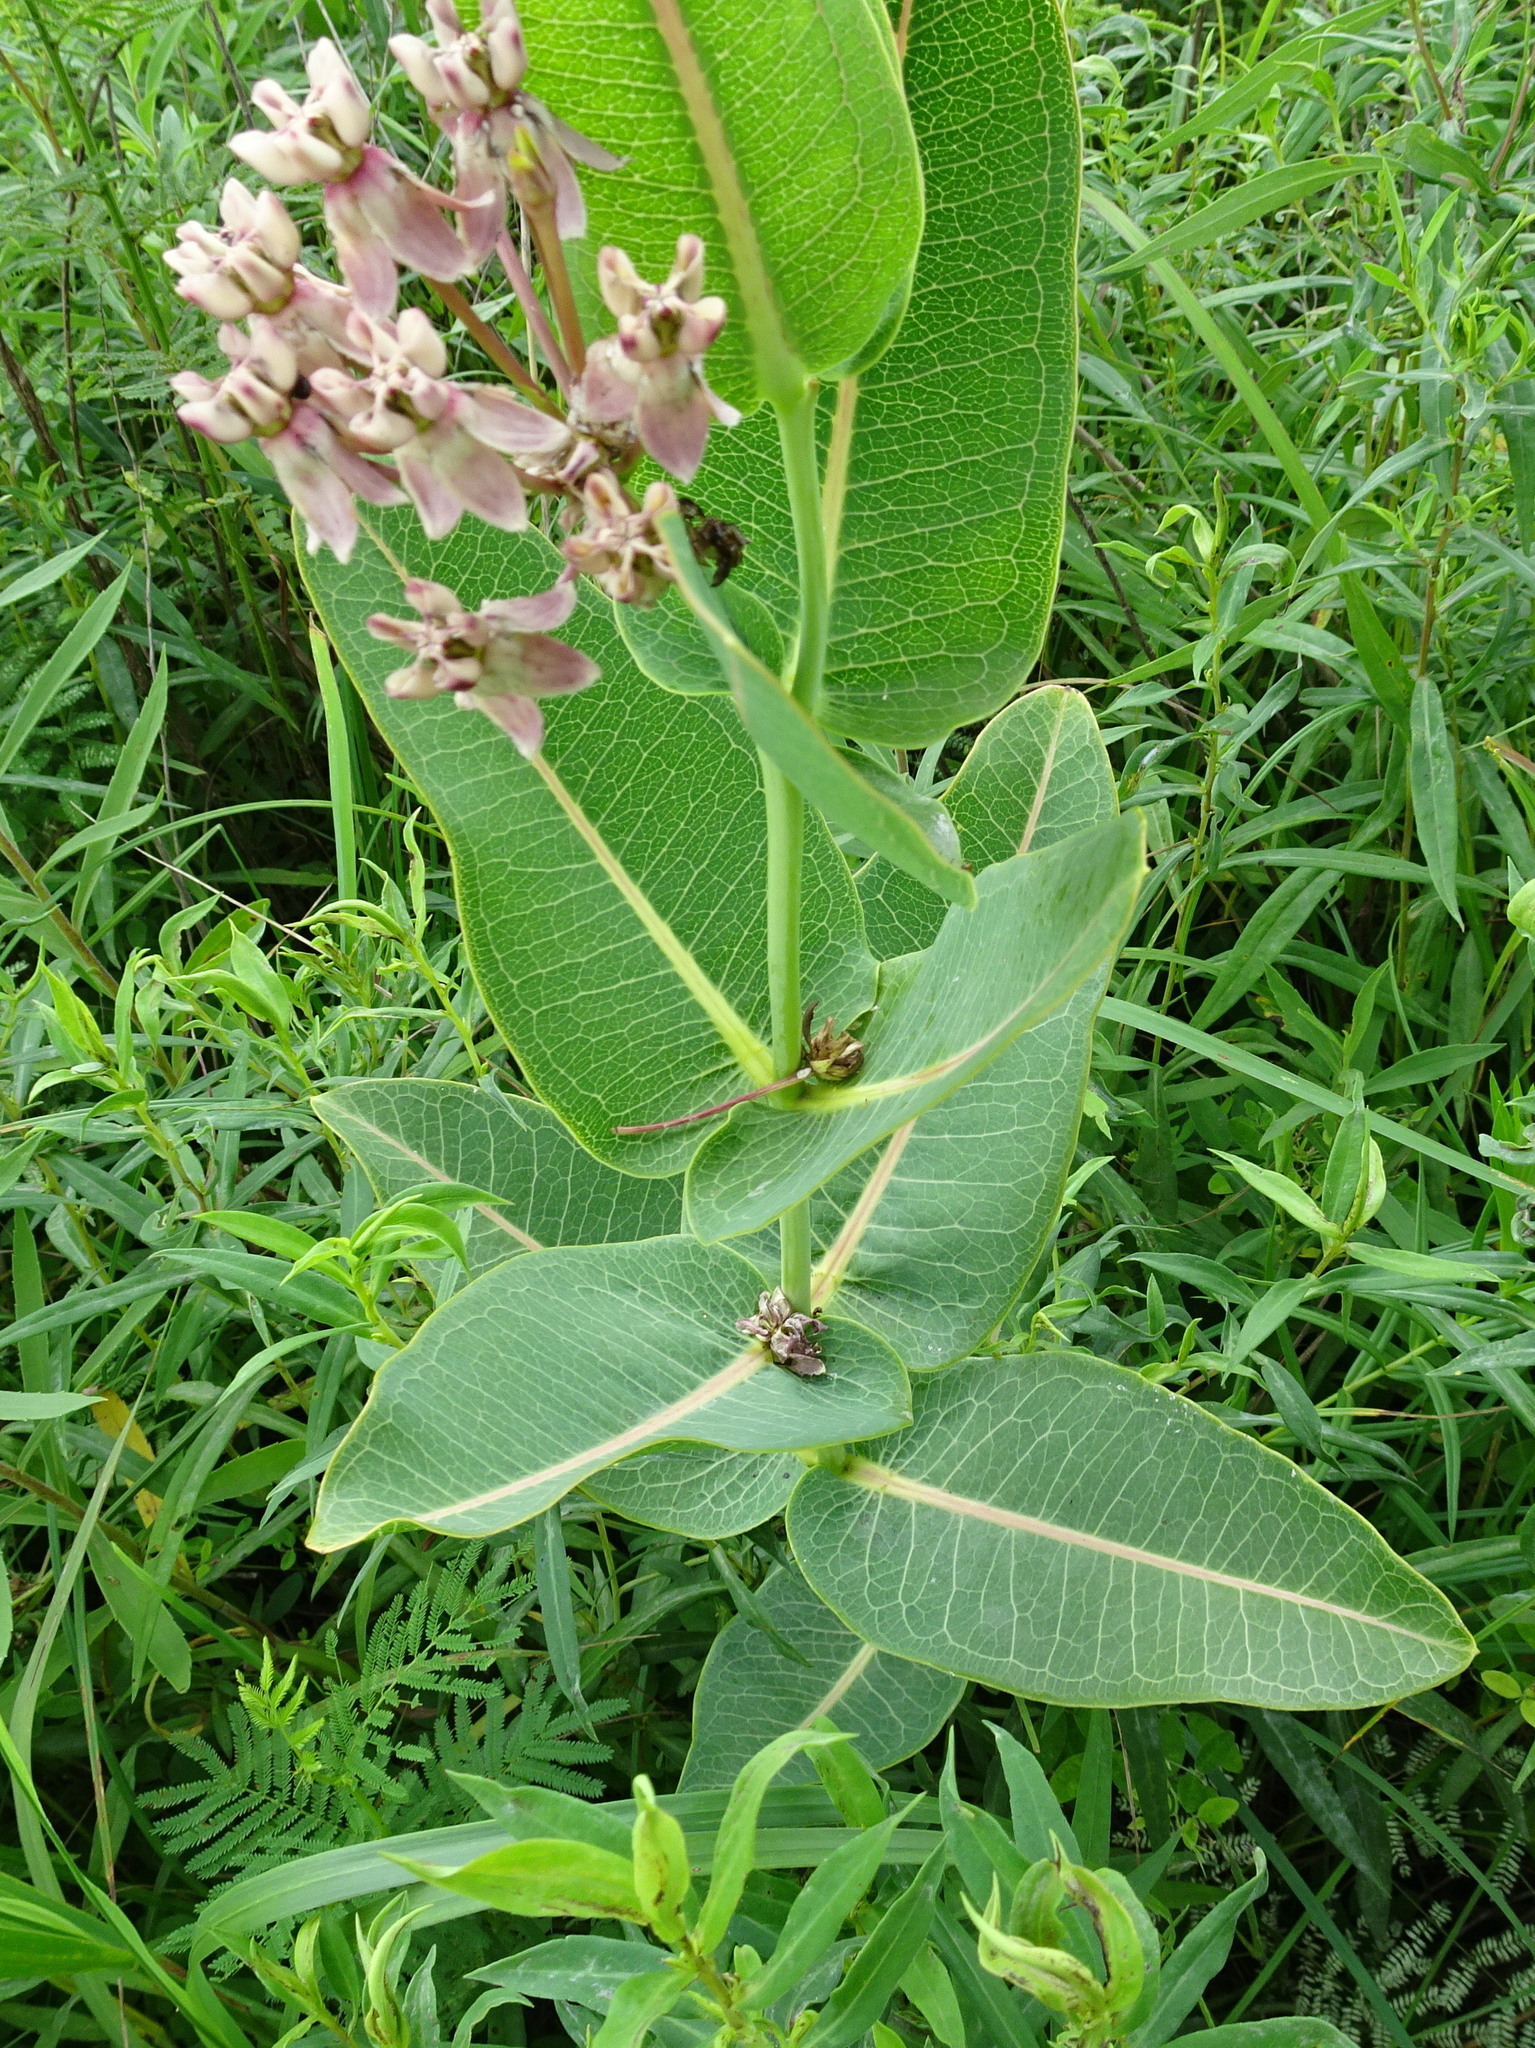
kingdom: Plantae
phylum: Tracheophyta
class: Magnoliopsida
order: Gentianales
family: Apocynaceae
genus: Asclepias
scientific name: Asclepias sullivantii
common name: Prairie milkweed
